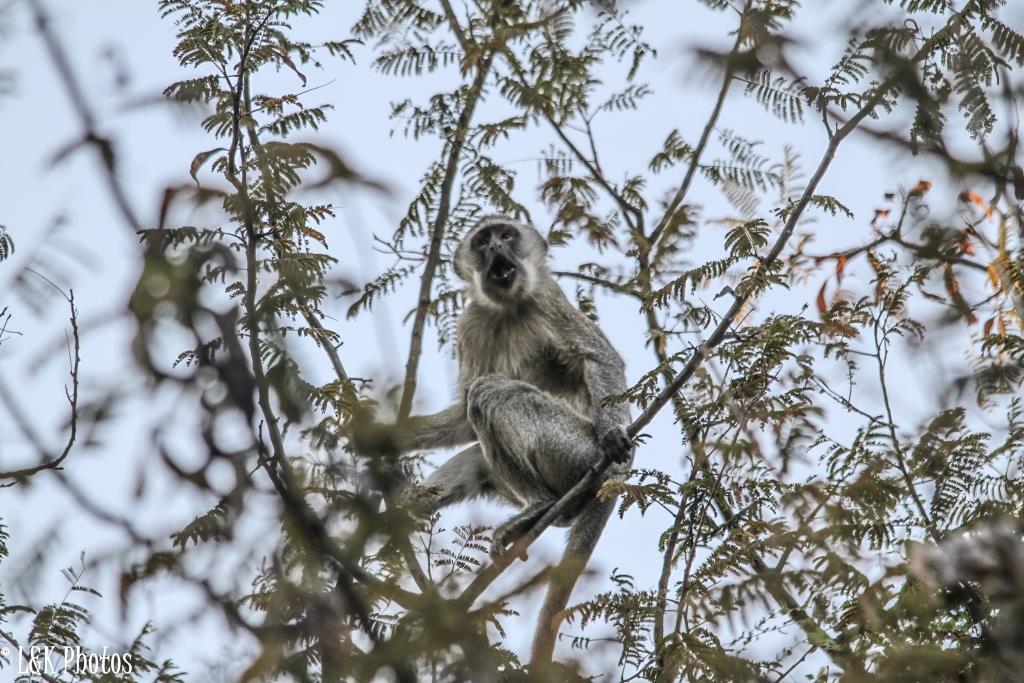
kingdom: Animalia
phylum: Chordata
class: Mammalia
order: Primates
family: Cercopithecidae
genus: Chlorocebus
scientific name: Chlorocebus pygerythrus
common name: Vervet monkey
